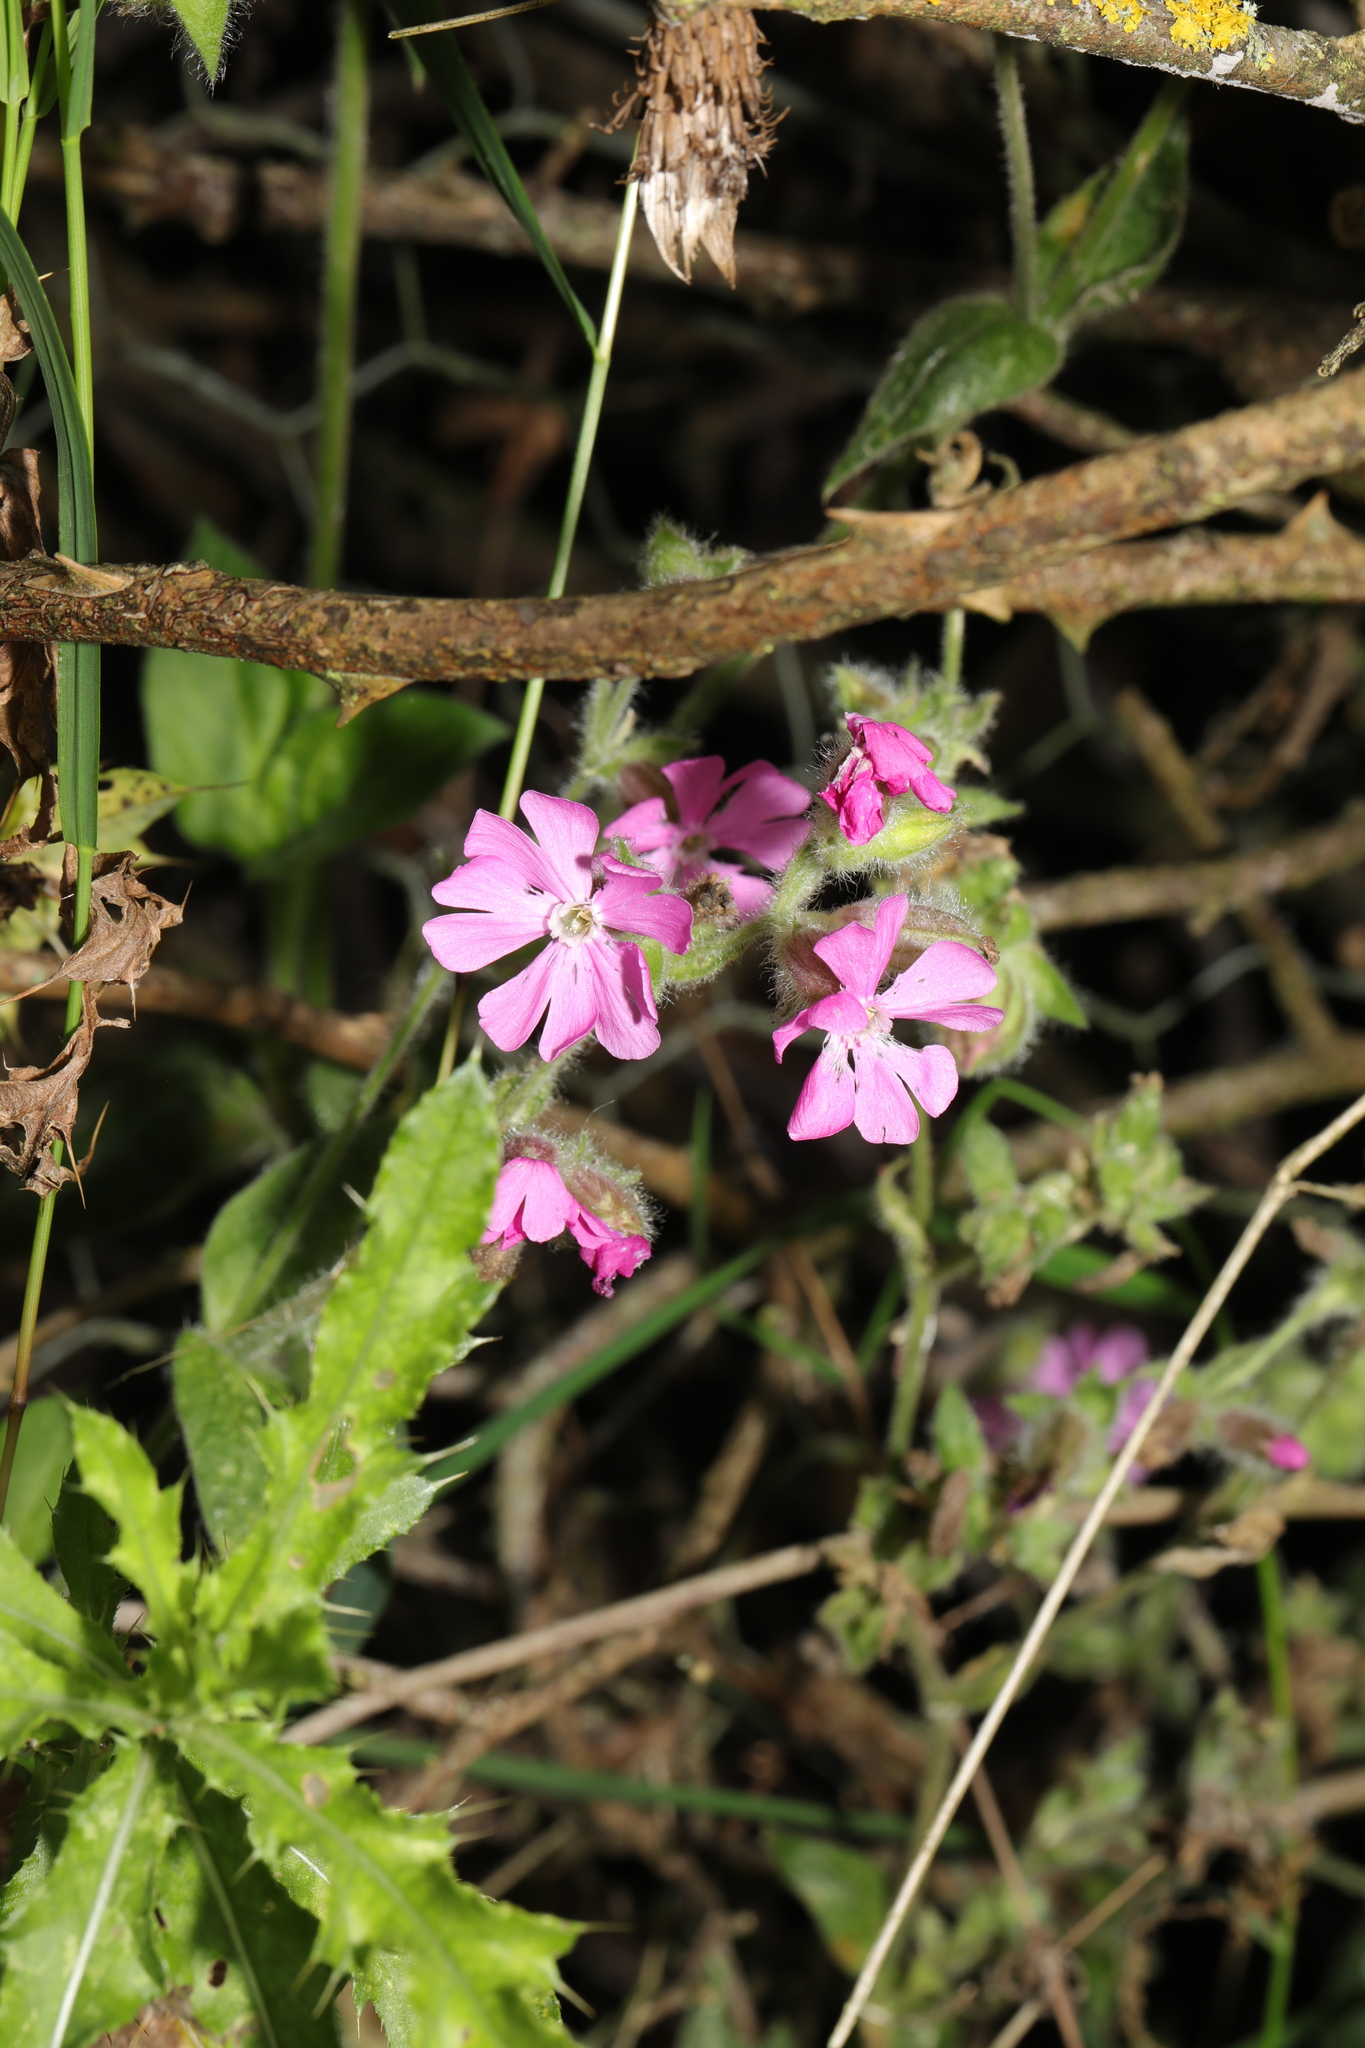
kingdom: Plantae
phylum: Tracheophyta
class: Magnoliopsida
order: Caryophyllales
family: Caryophyllaceae
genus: Silene
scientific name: Silene dioica
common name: Red campion
